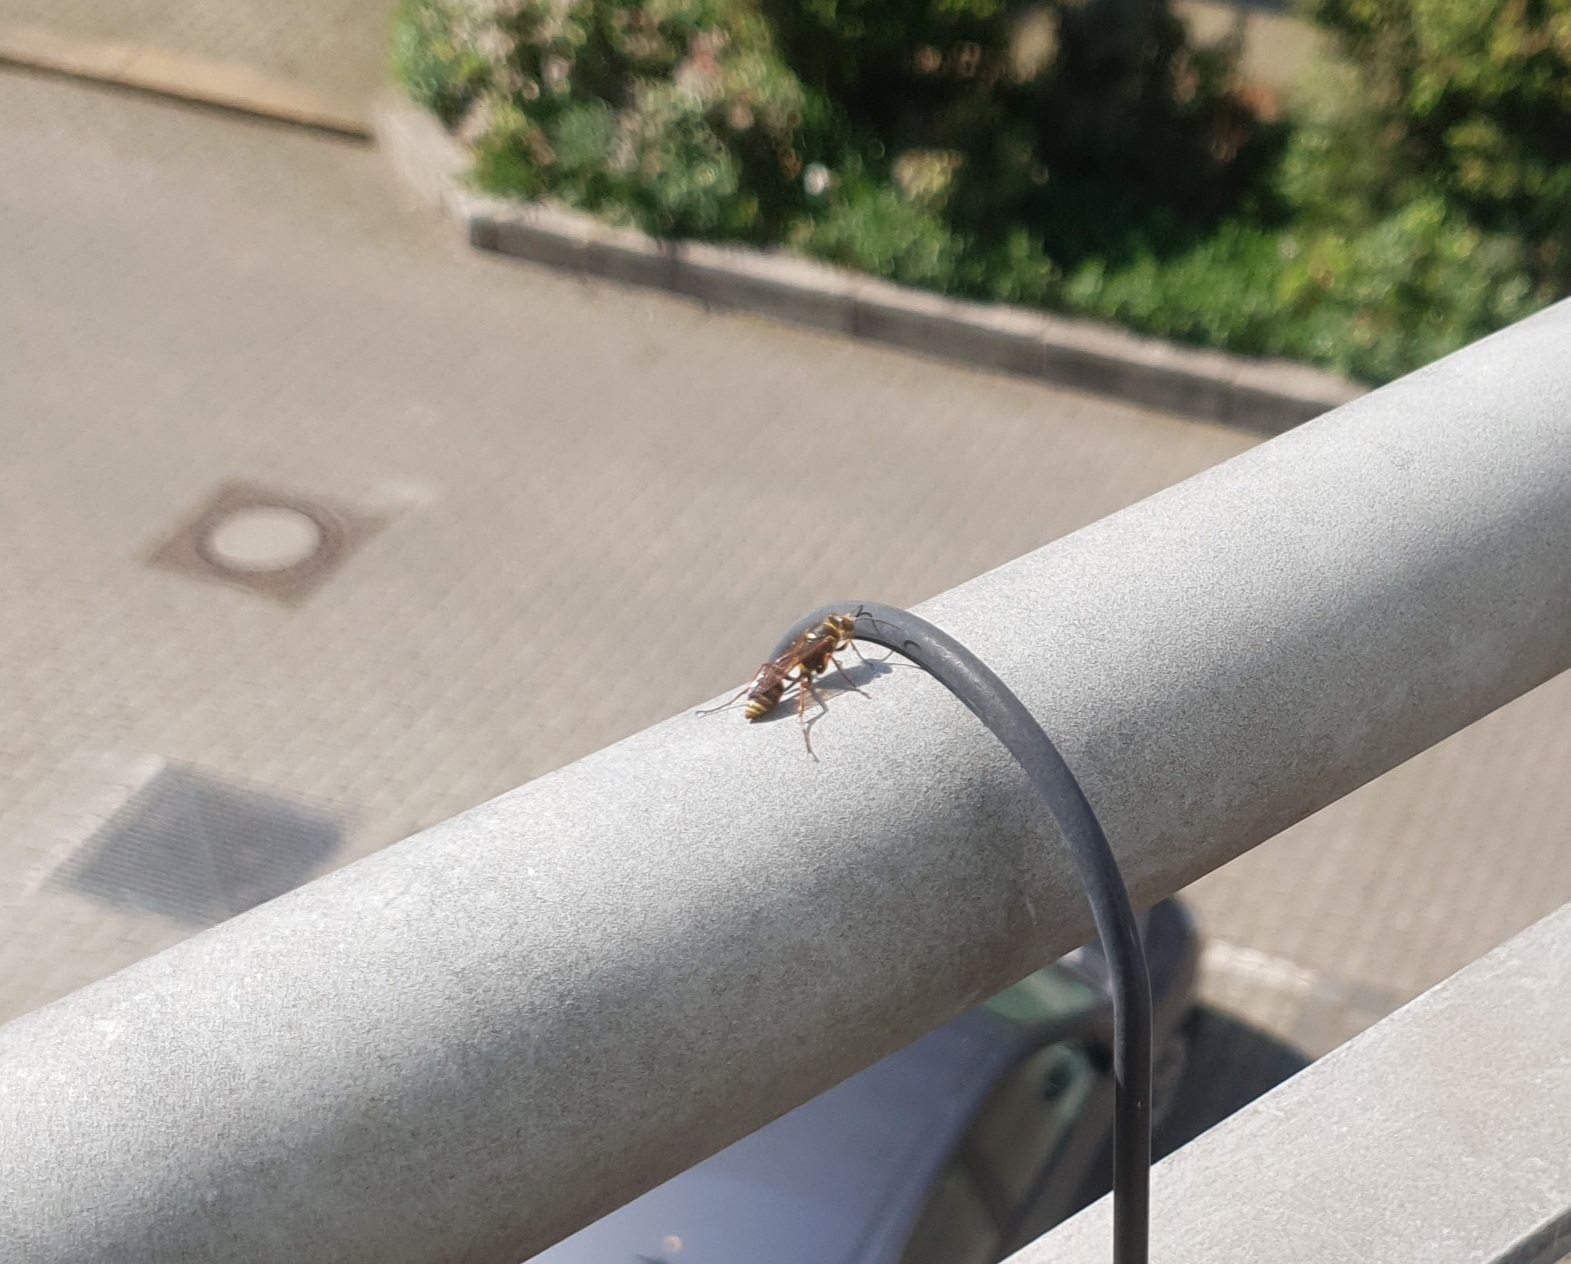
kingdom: Animalia
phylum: Arthropoda
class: Insecta
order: Hymenoptera
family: Sphecidae
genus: Sceliphron
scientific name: Sceliphron curvatum
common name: Pèlopèe
